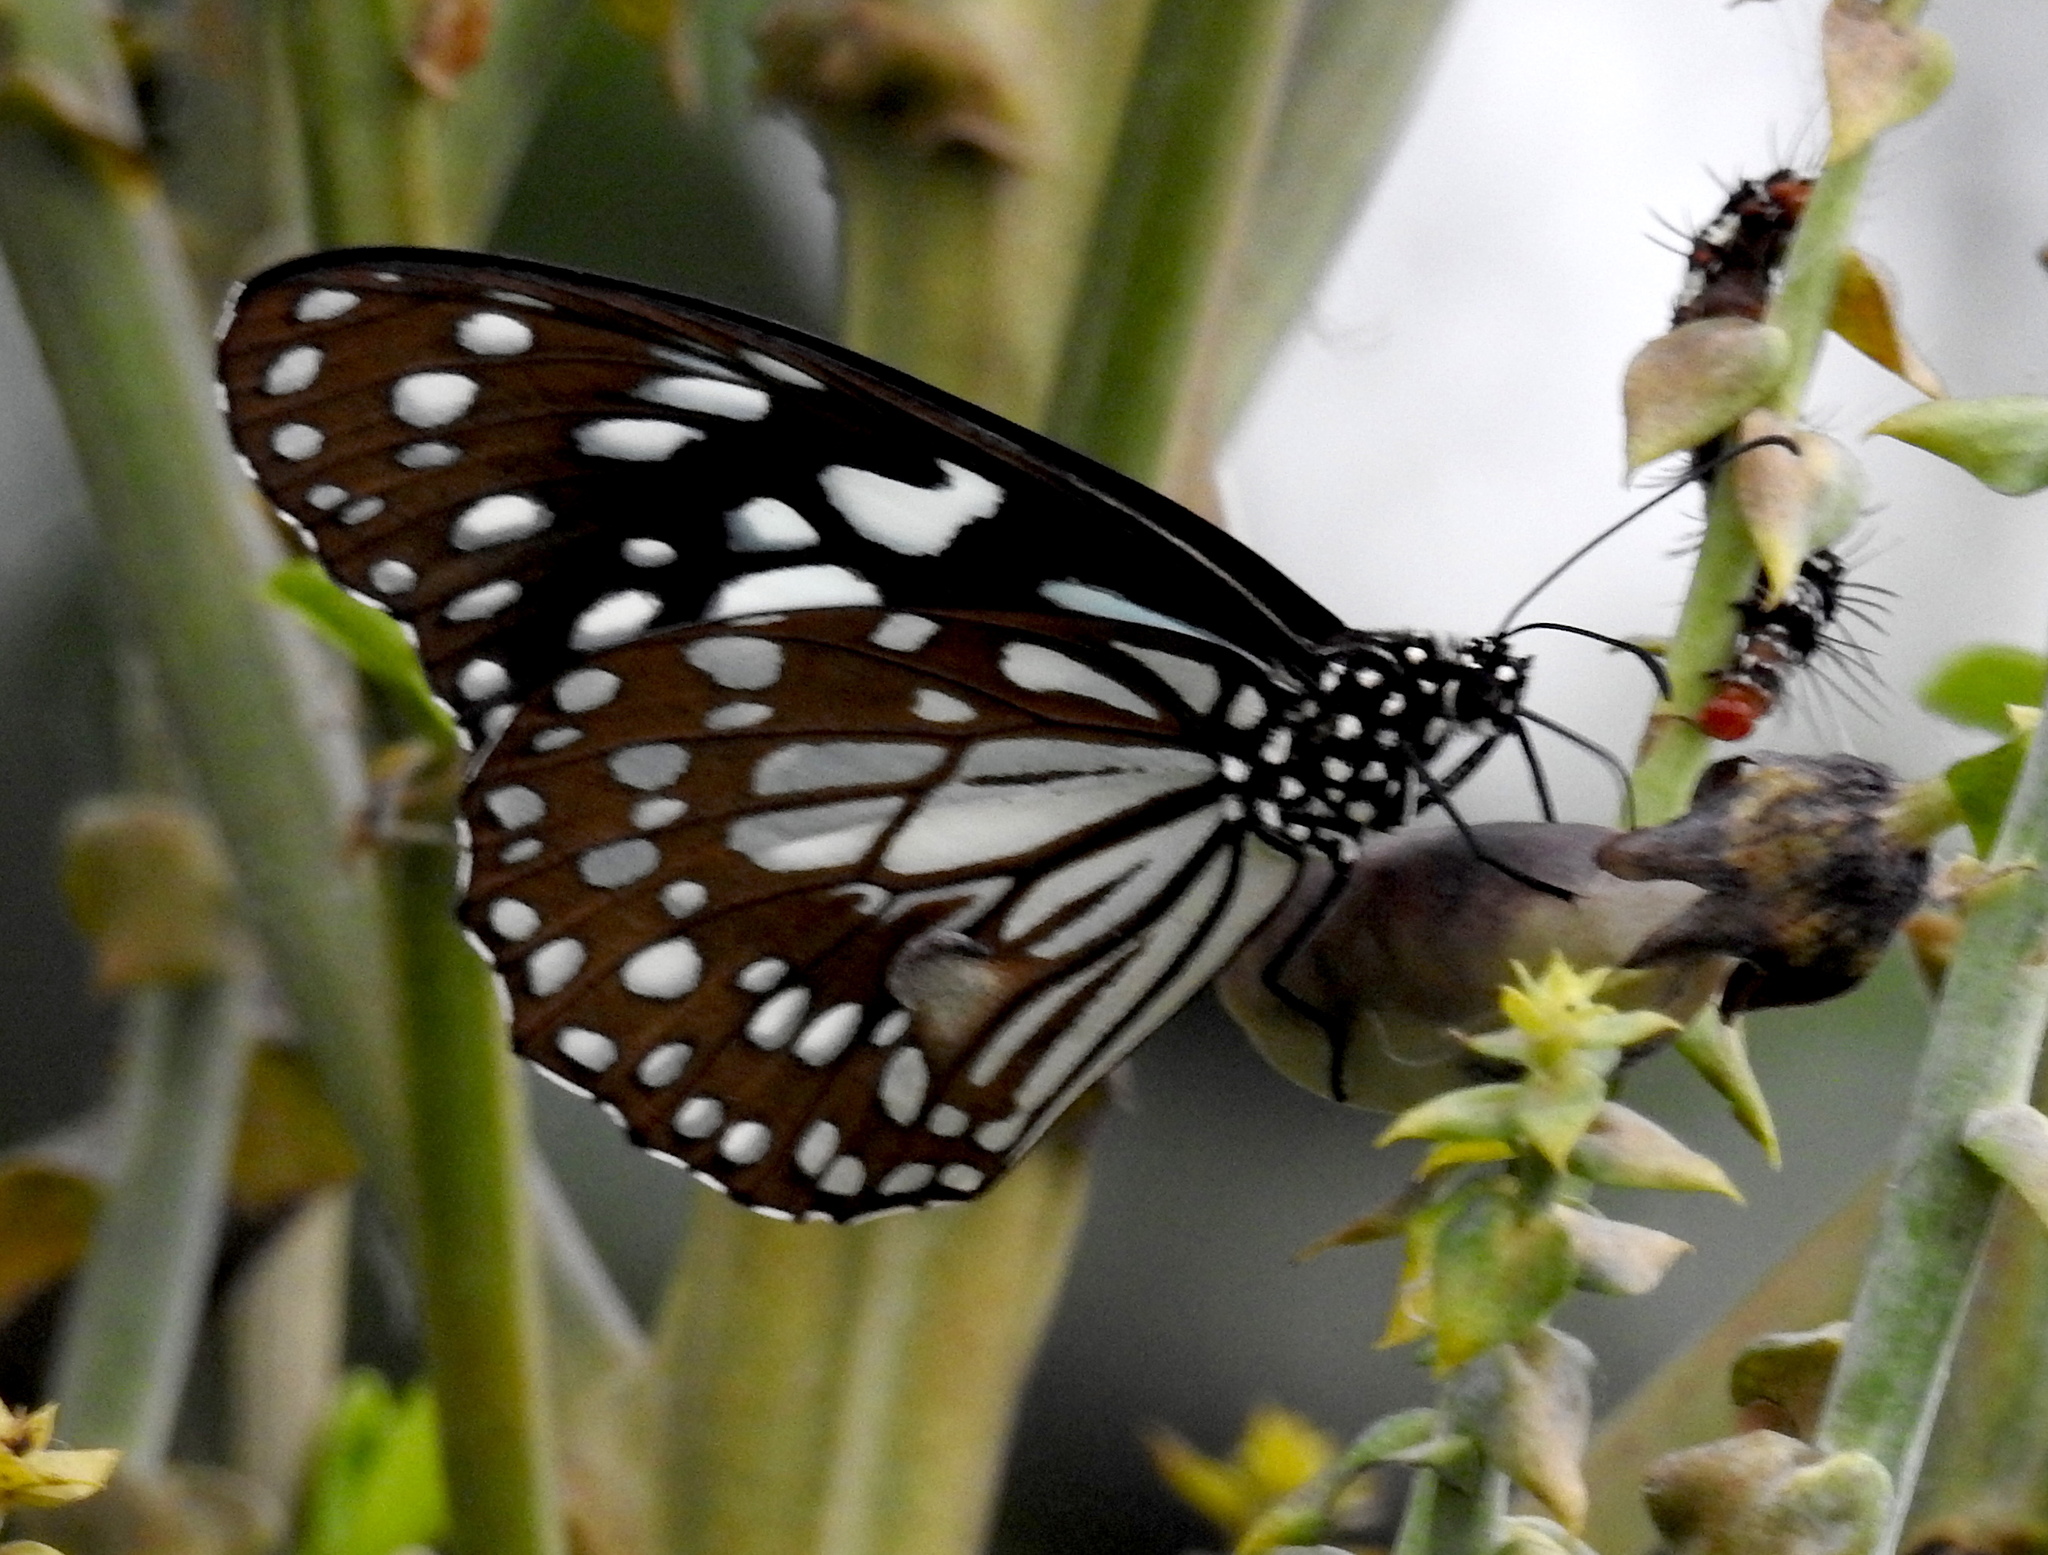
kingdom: Animalia
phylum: Arthropoda
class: Insecta
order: Lepidoptera
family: Nymphalidae
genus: Tirumala
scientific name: Tirumala limniace
